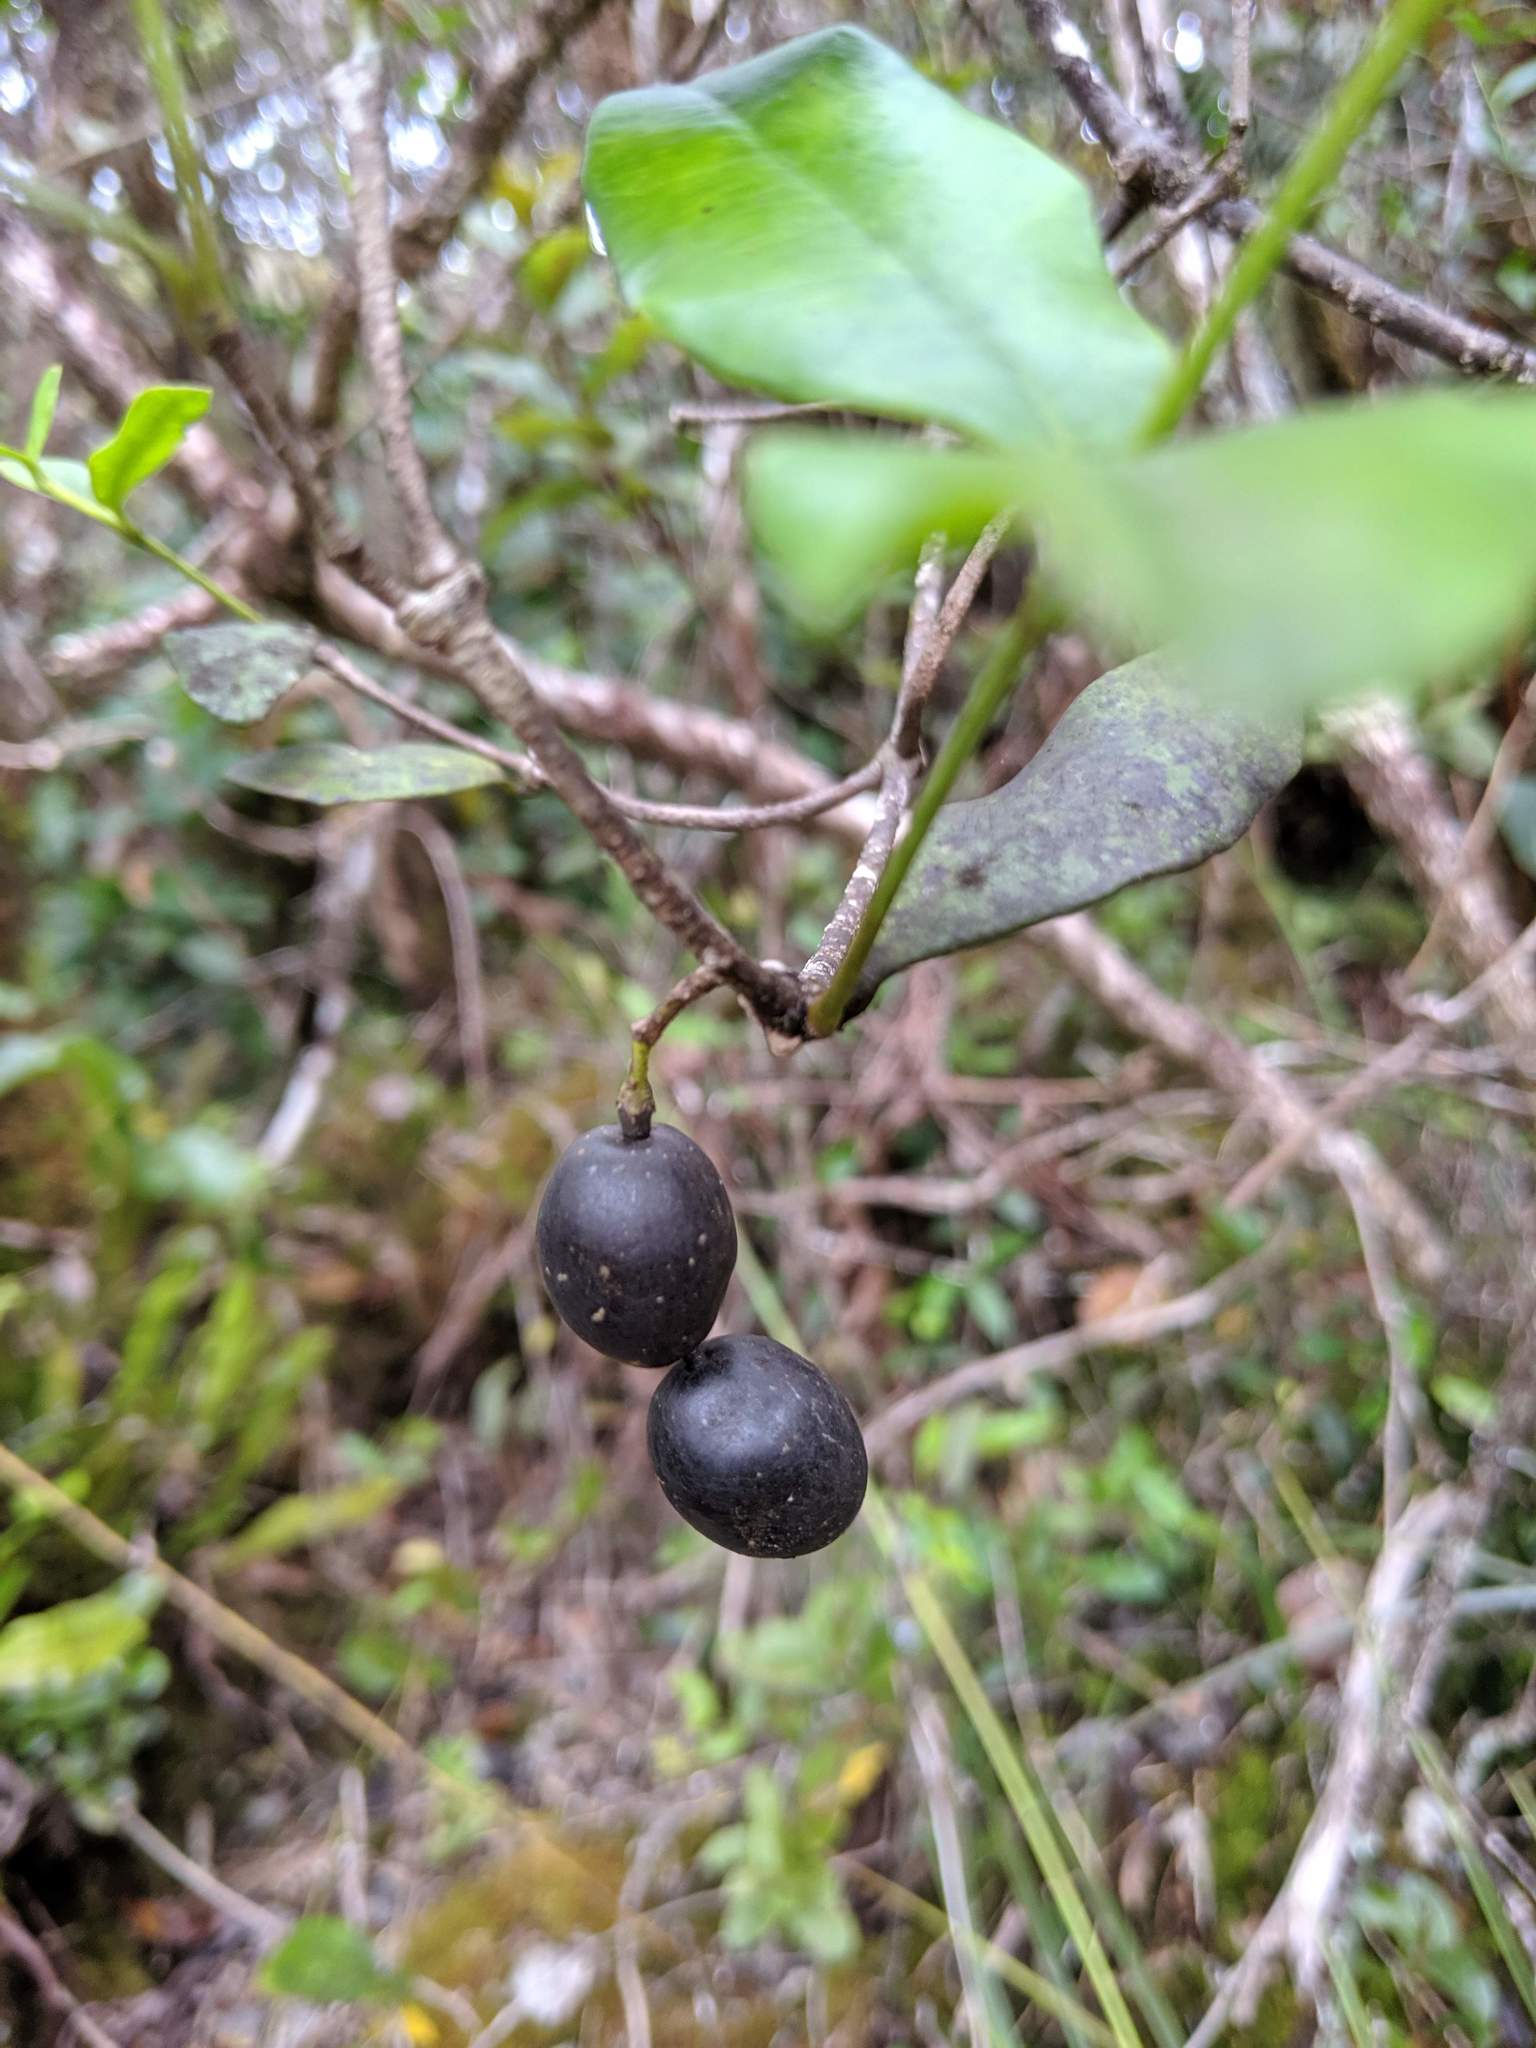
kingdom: Plantae
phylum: Tracheophyta
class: Magnoliopsida
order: Gentianales
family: Apocynaceae
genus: Alyxia
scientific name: Alyxia stellata
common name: Maile
